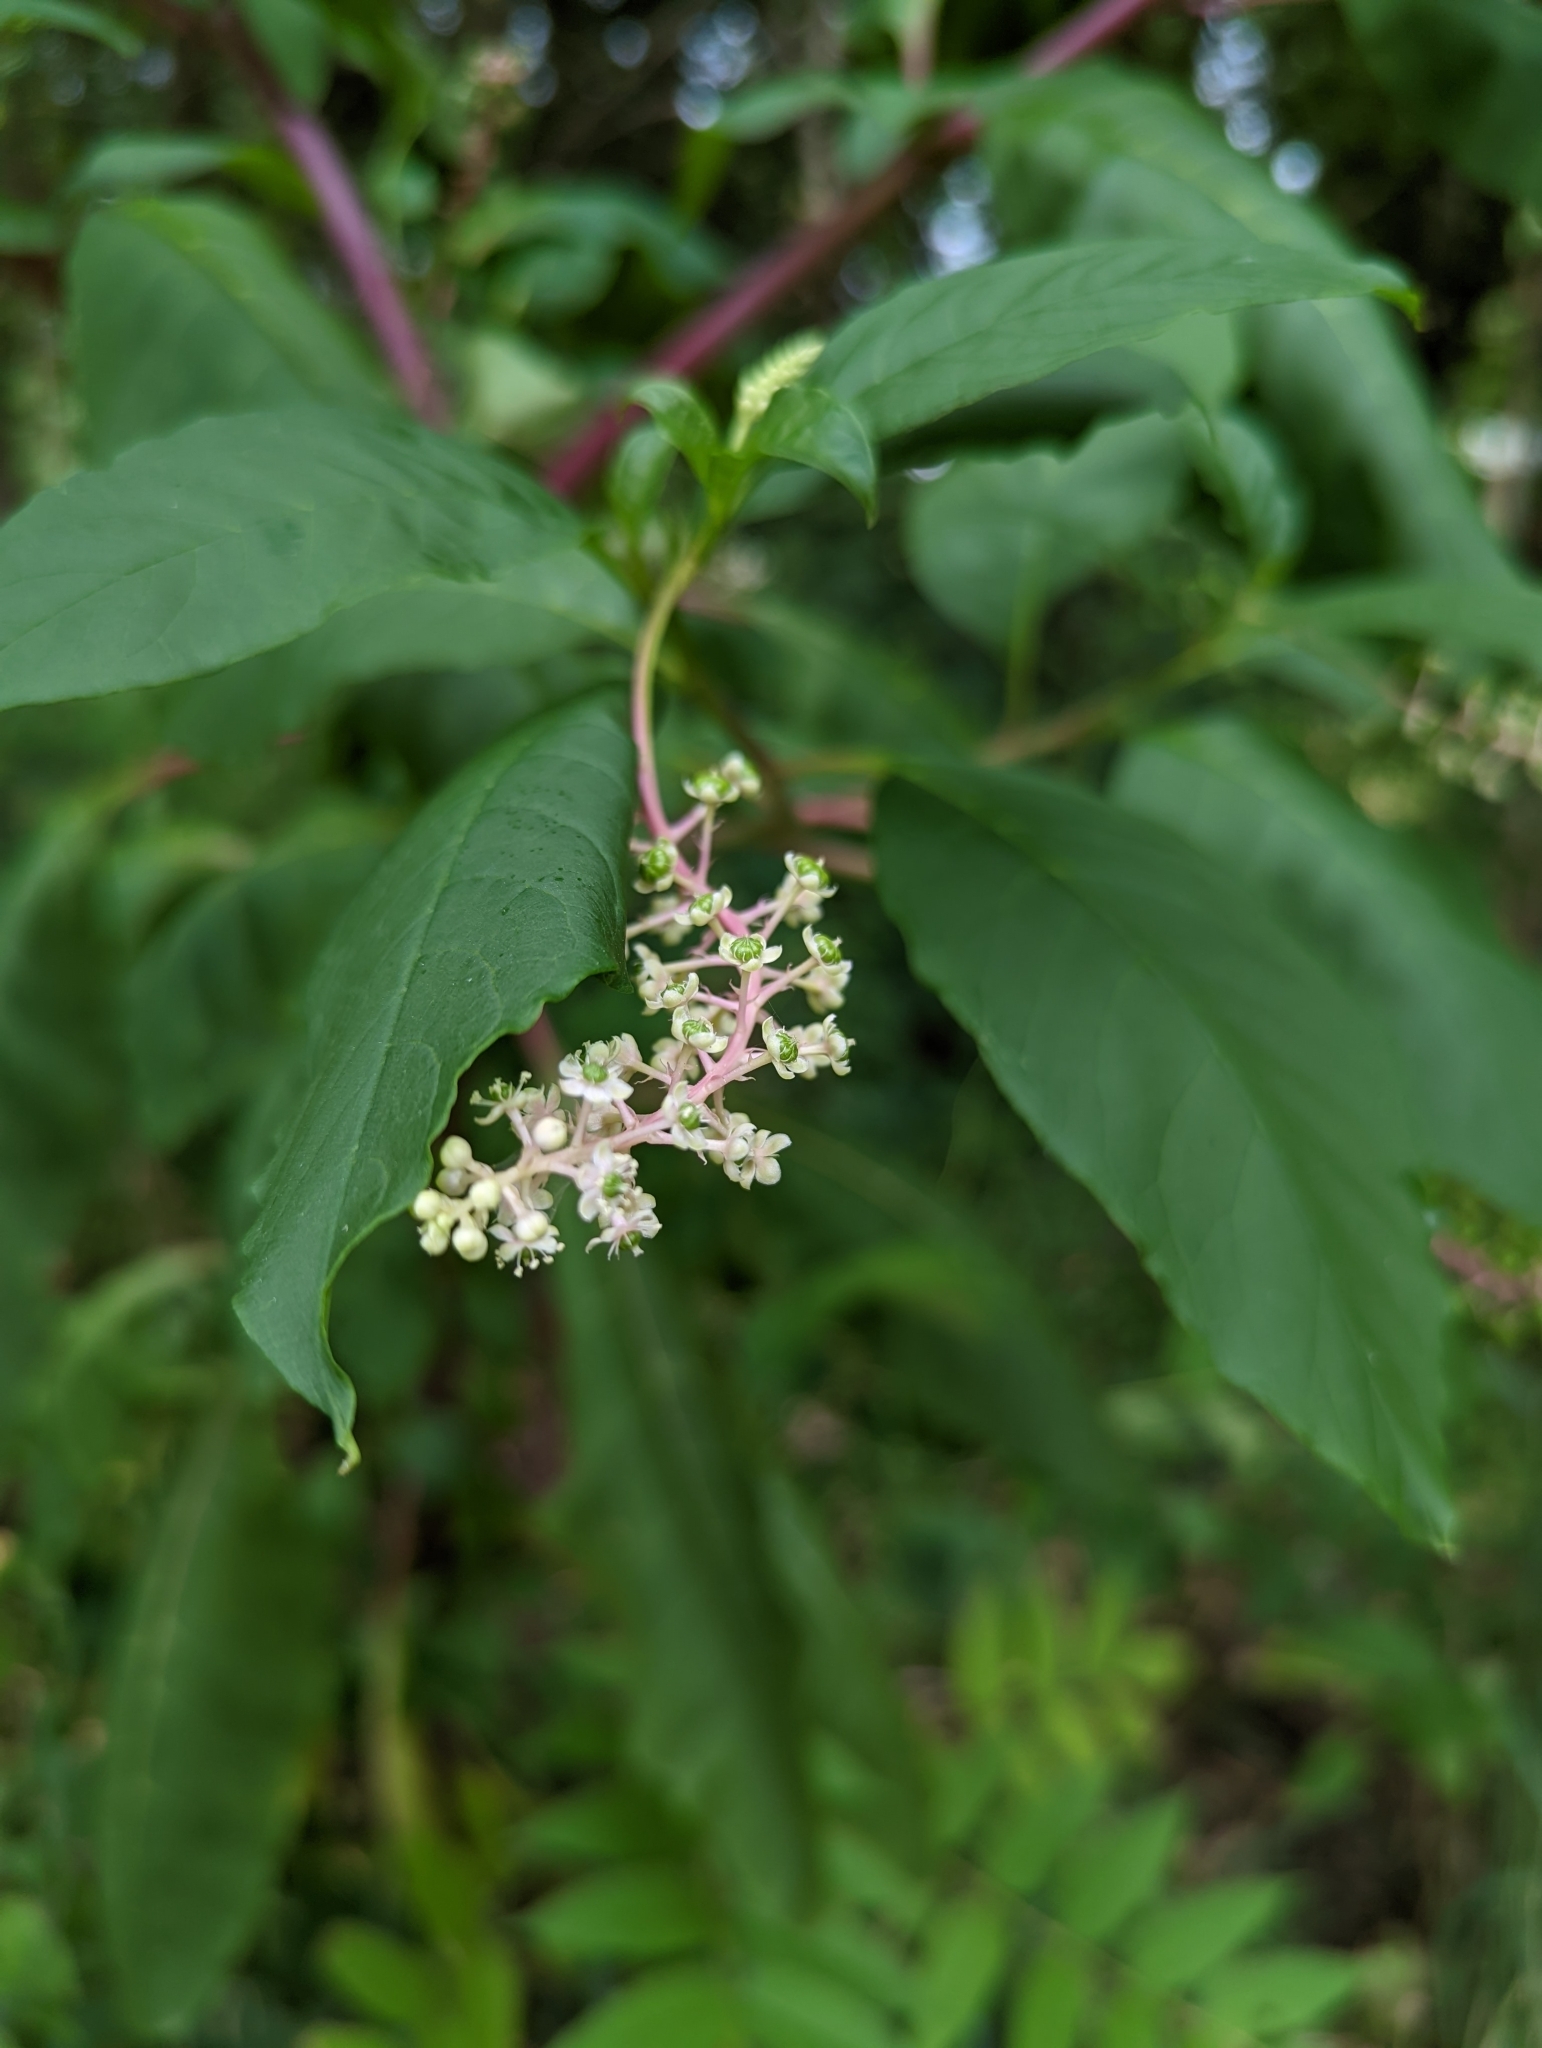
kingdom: Plantae
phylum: Tracheophyta
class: Magnoliopsida
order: Caryophyllales
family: Phytolaccaceae
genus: Phytolacca
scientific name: Phytolacca americana
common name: American pokeweed
